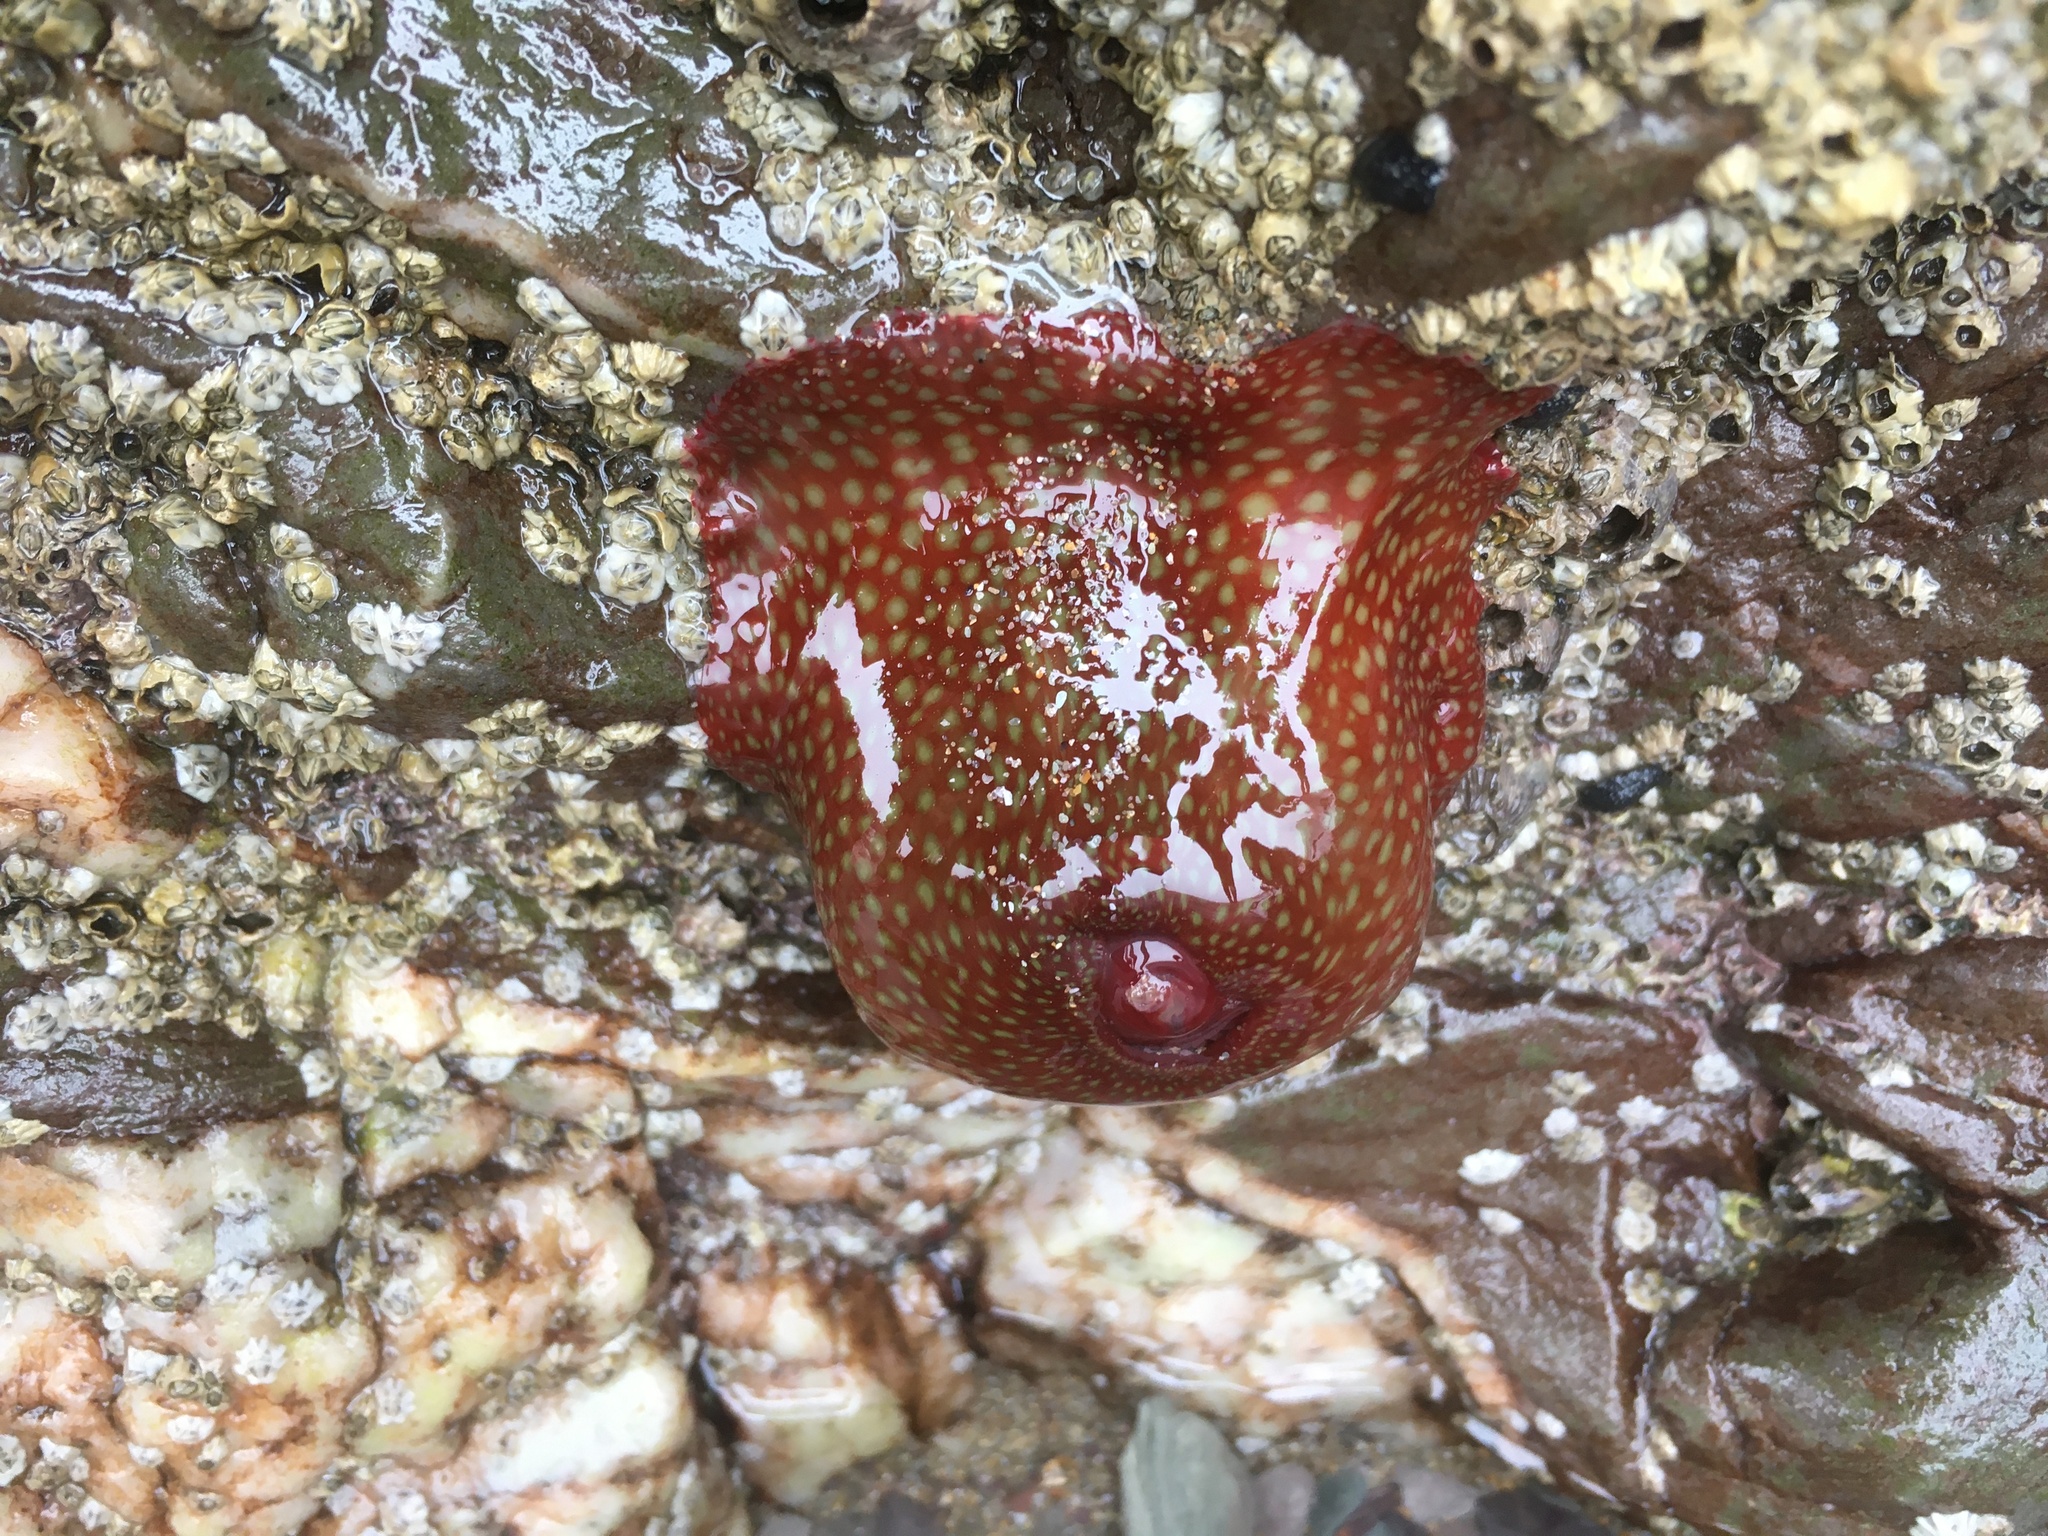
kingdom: Animalia
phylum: Cnidaria
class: Anthozoa
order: Actiniaria
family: Actiniidae
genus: Actinia
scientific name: Actinia fragacea
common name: Strawberry anemone
